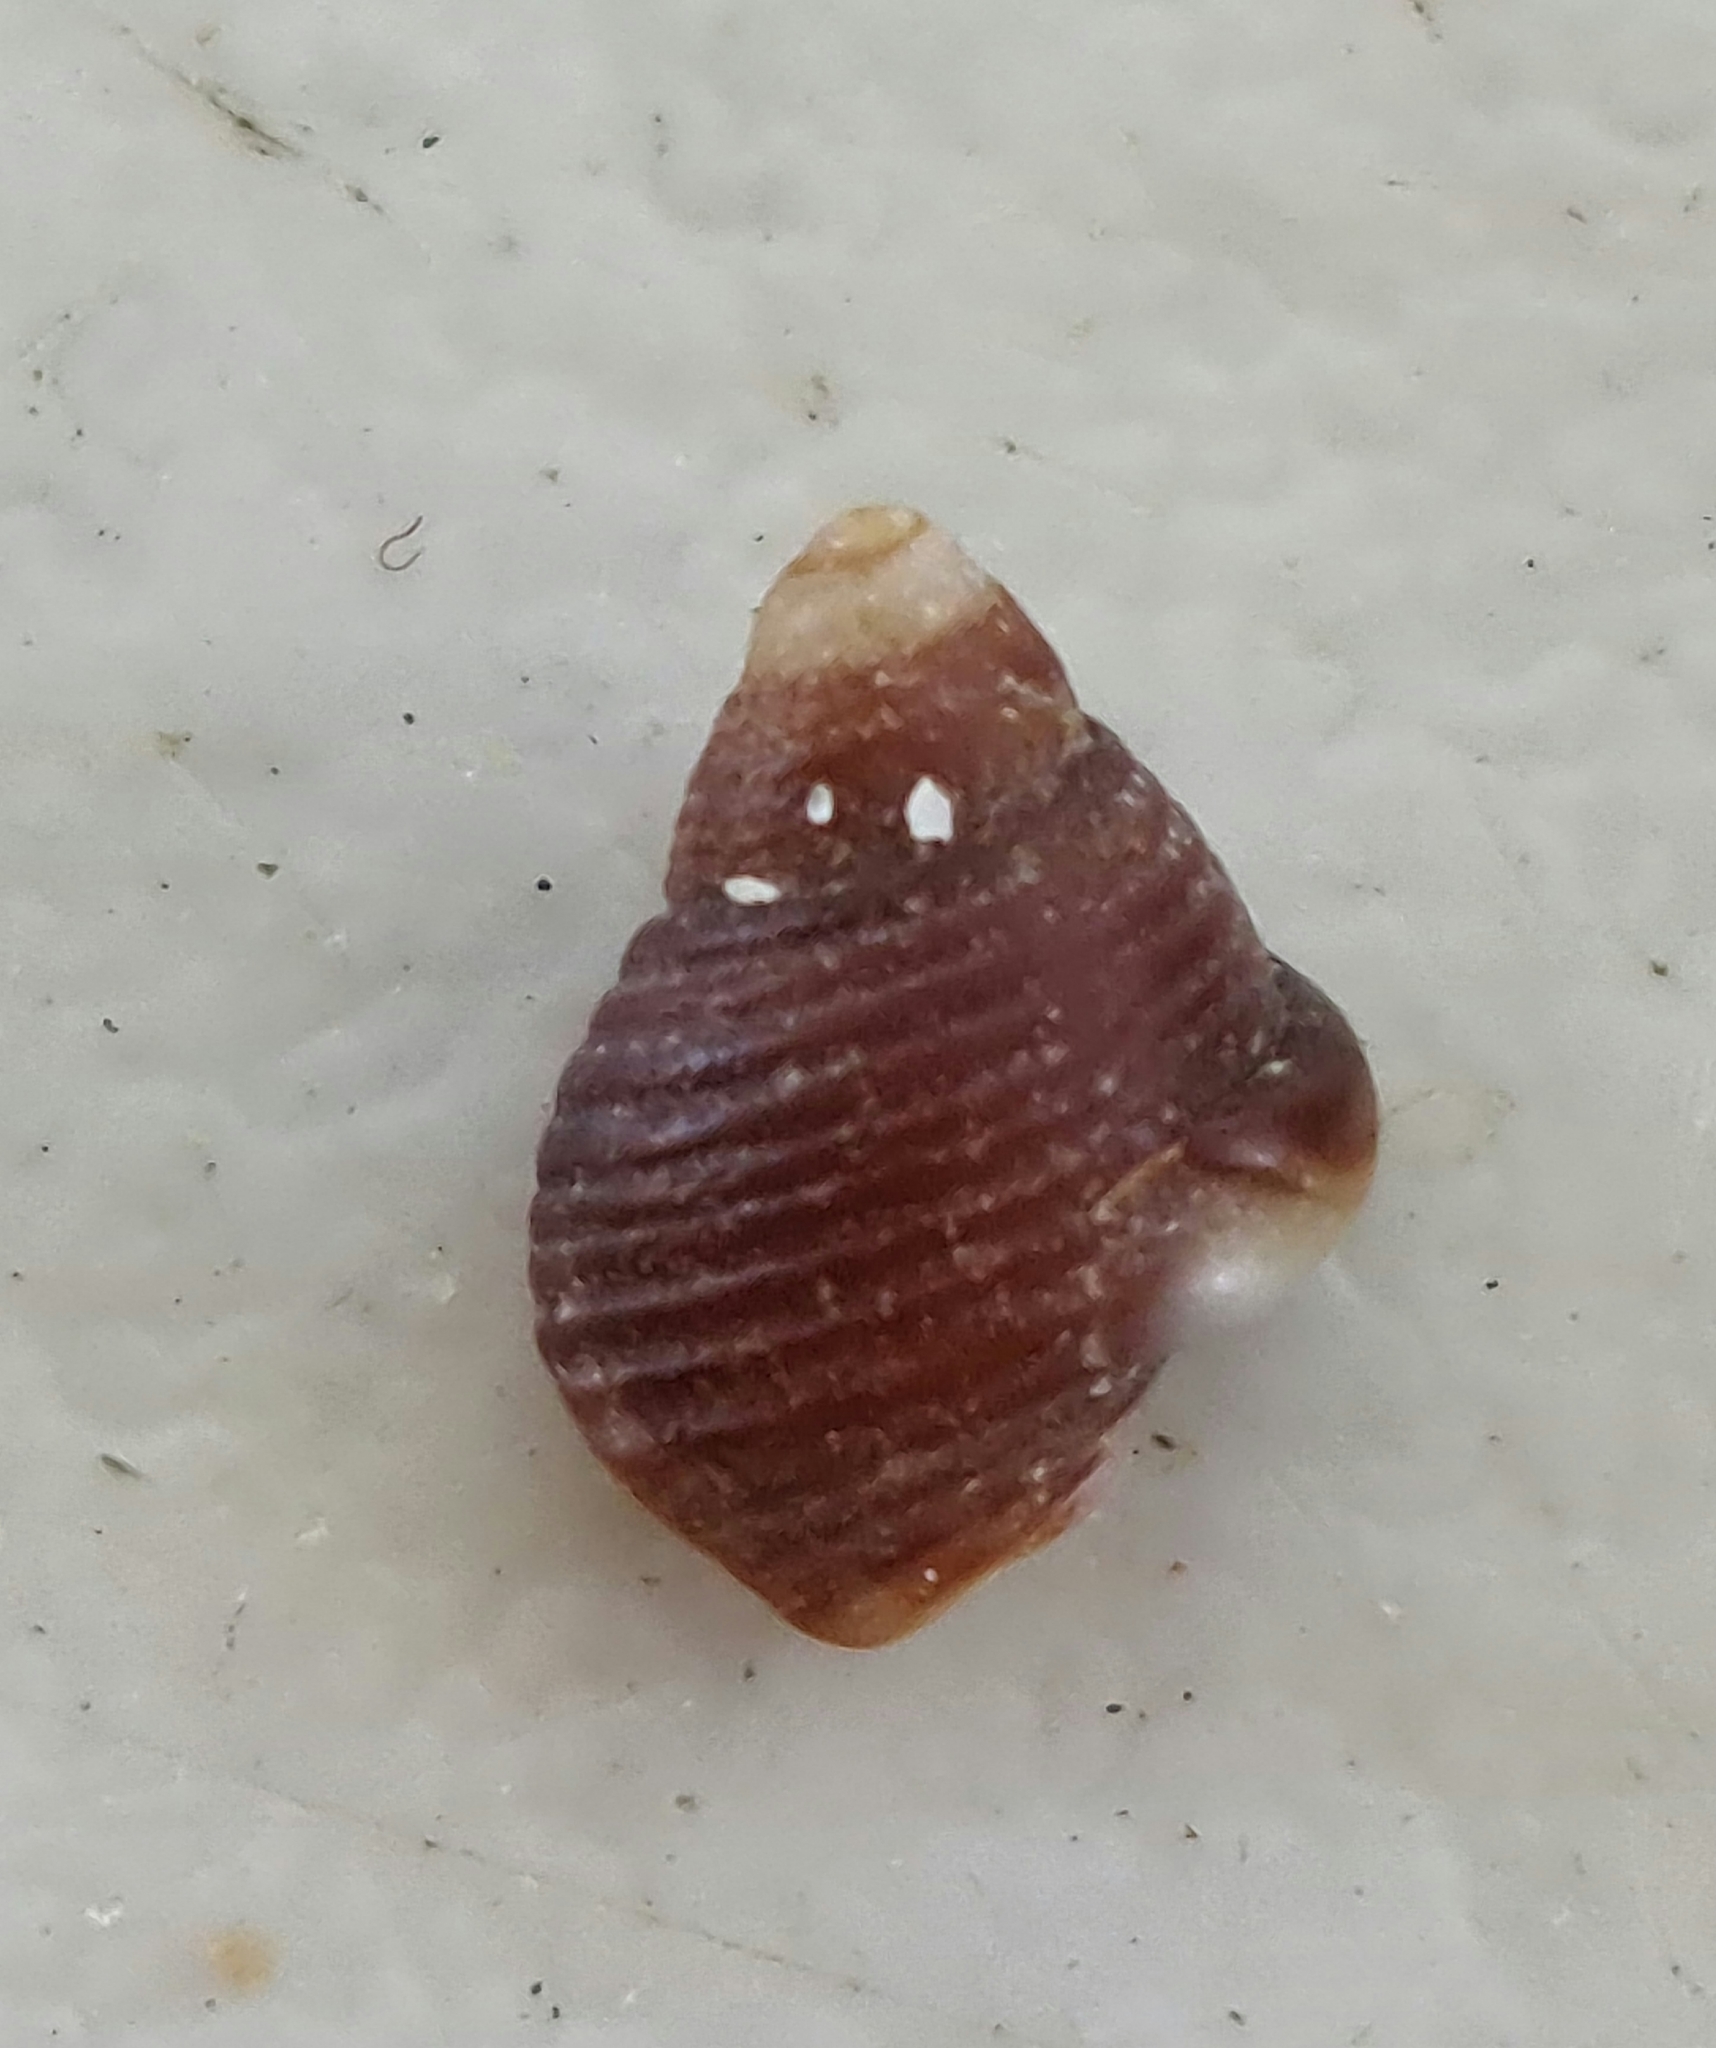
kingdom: Animalia
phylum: Mollusca
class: Gastropoda
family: Planaxidae
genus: Planaxis
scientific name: Planaxis sulcatus
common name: Furrowed planaxis
